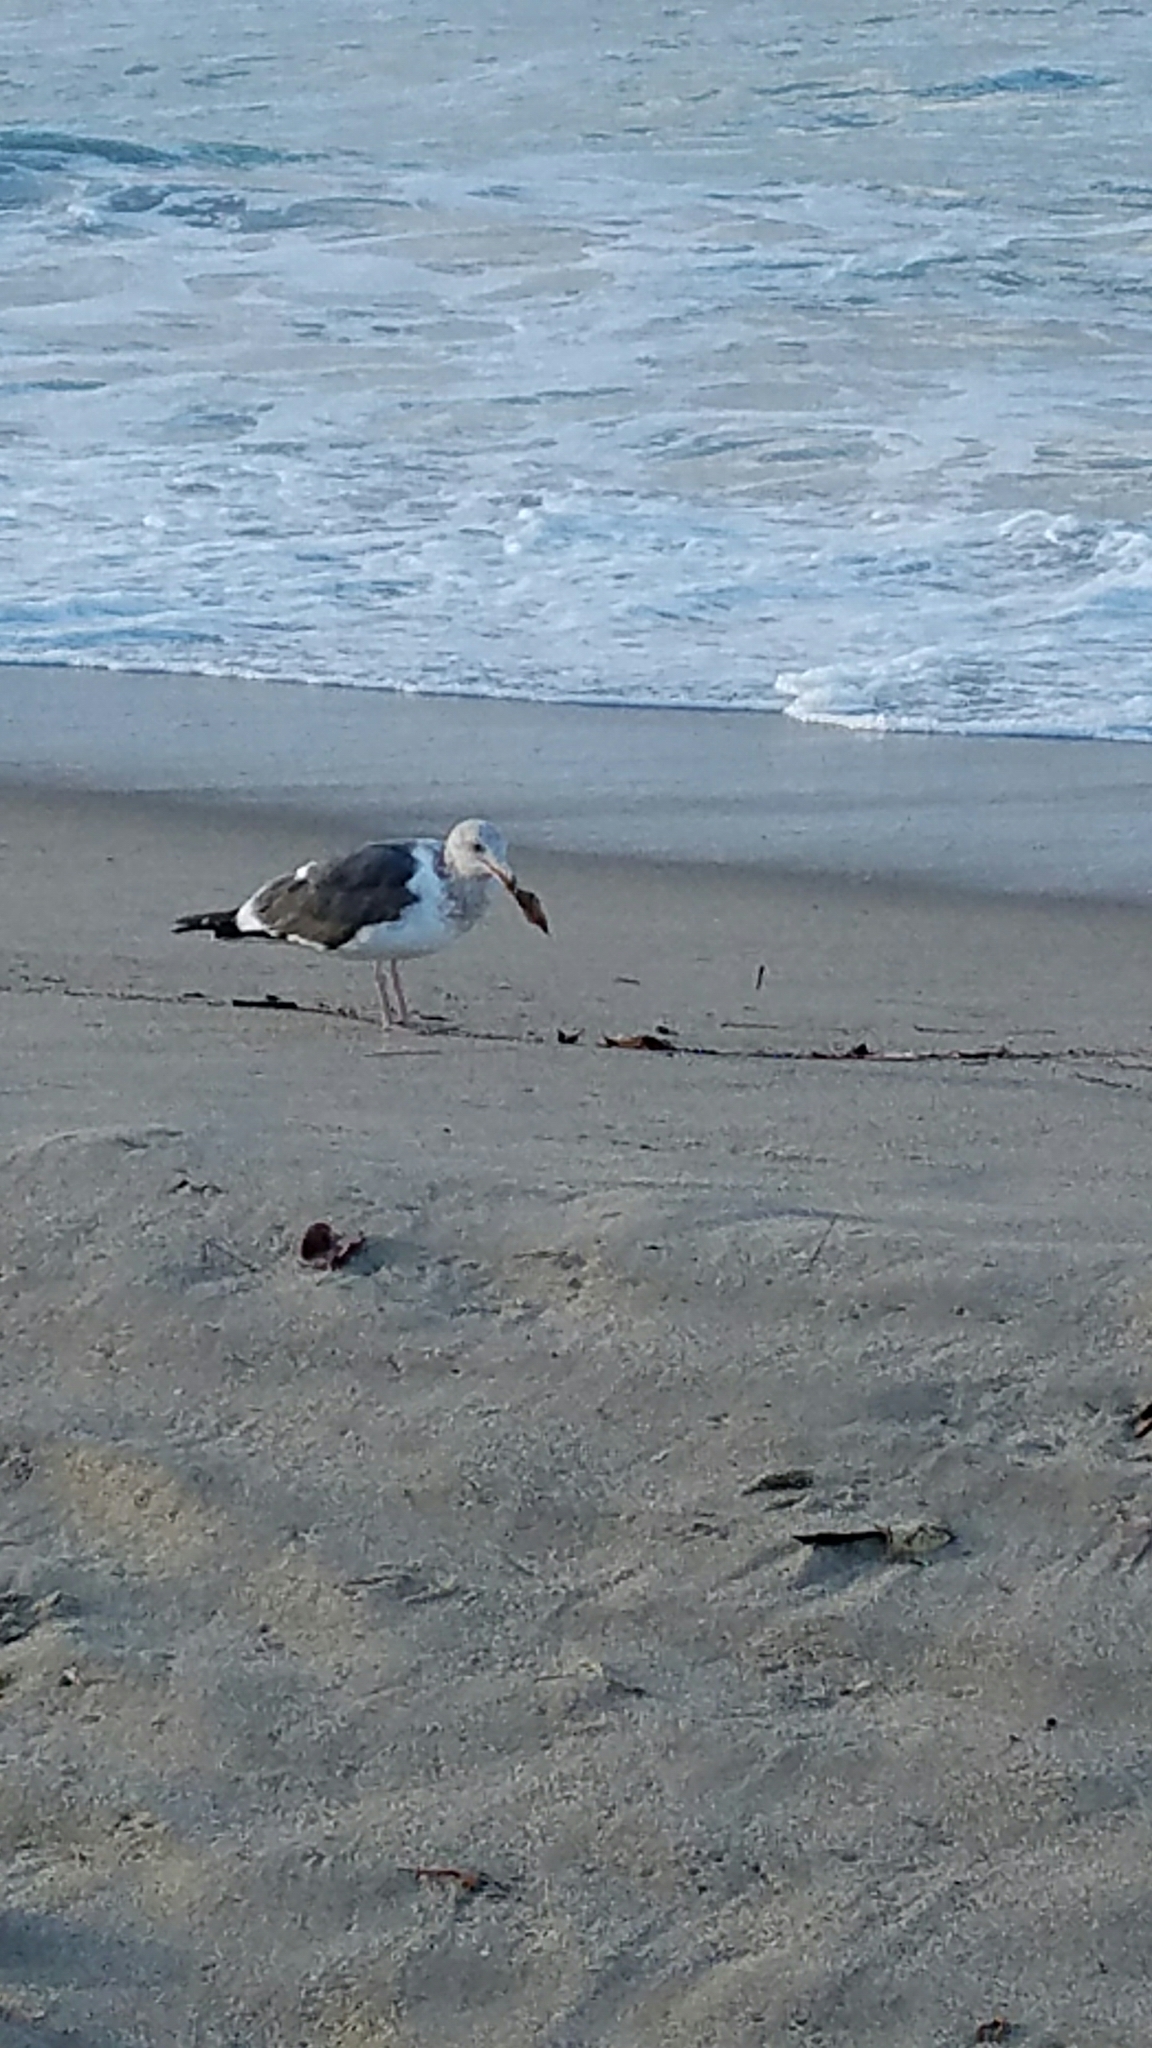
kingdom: Animalia
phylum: Chordata
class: Aves
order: Charadriiformes
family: Laridae
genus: Larus
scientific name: Larus occidentalis
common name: Western gull
